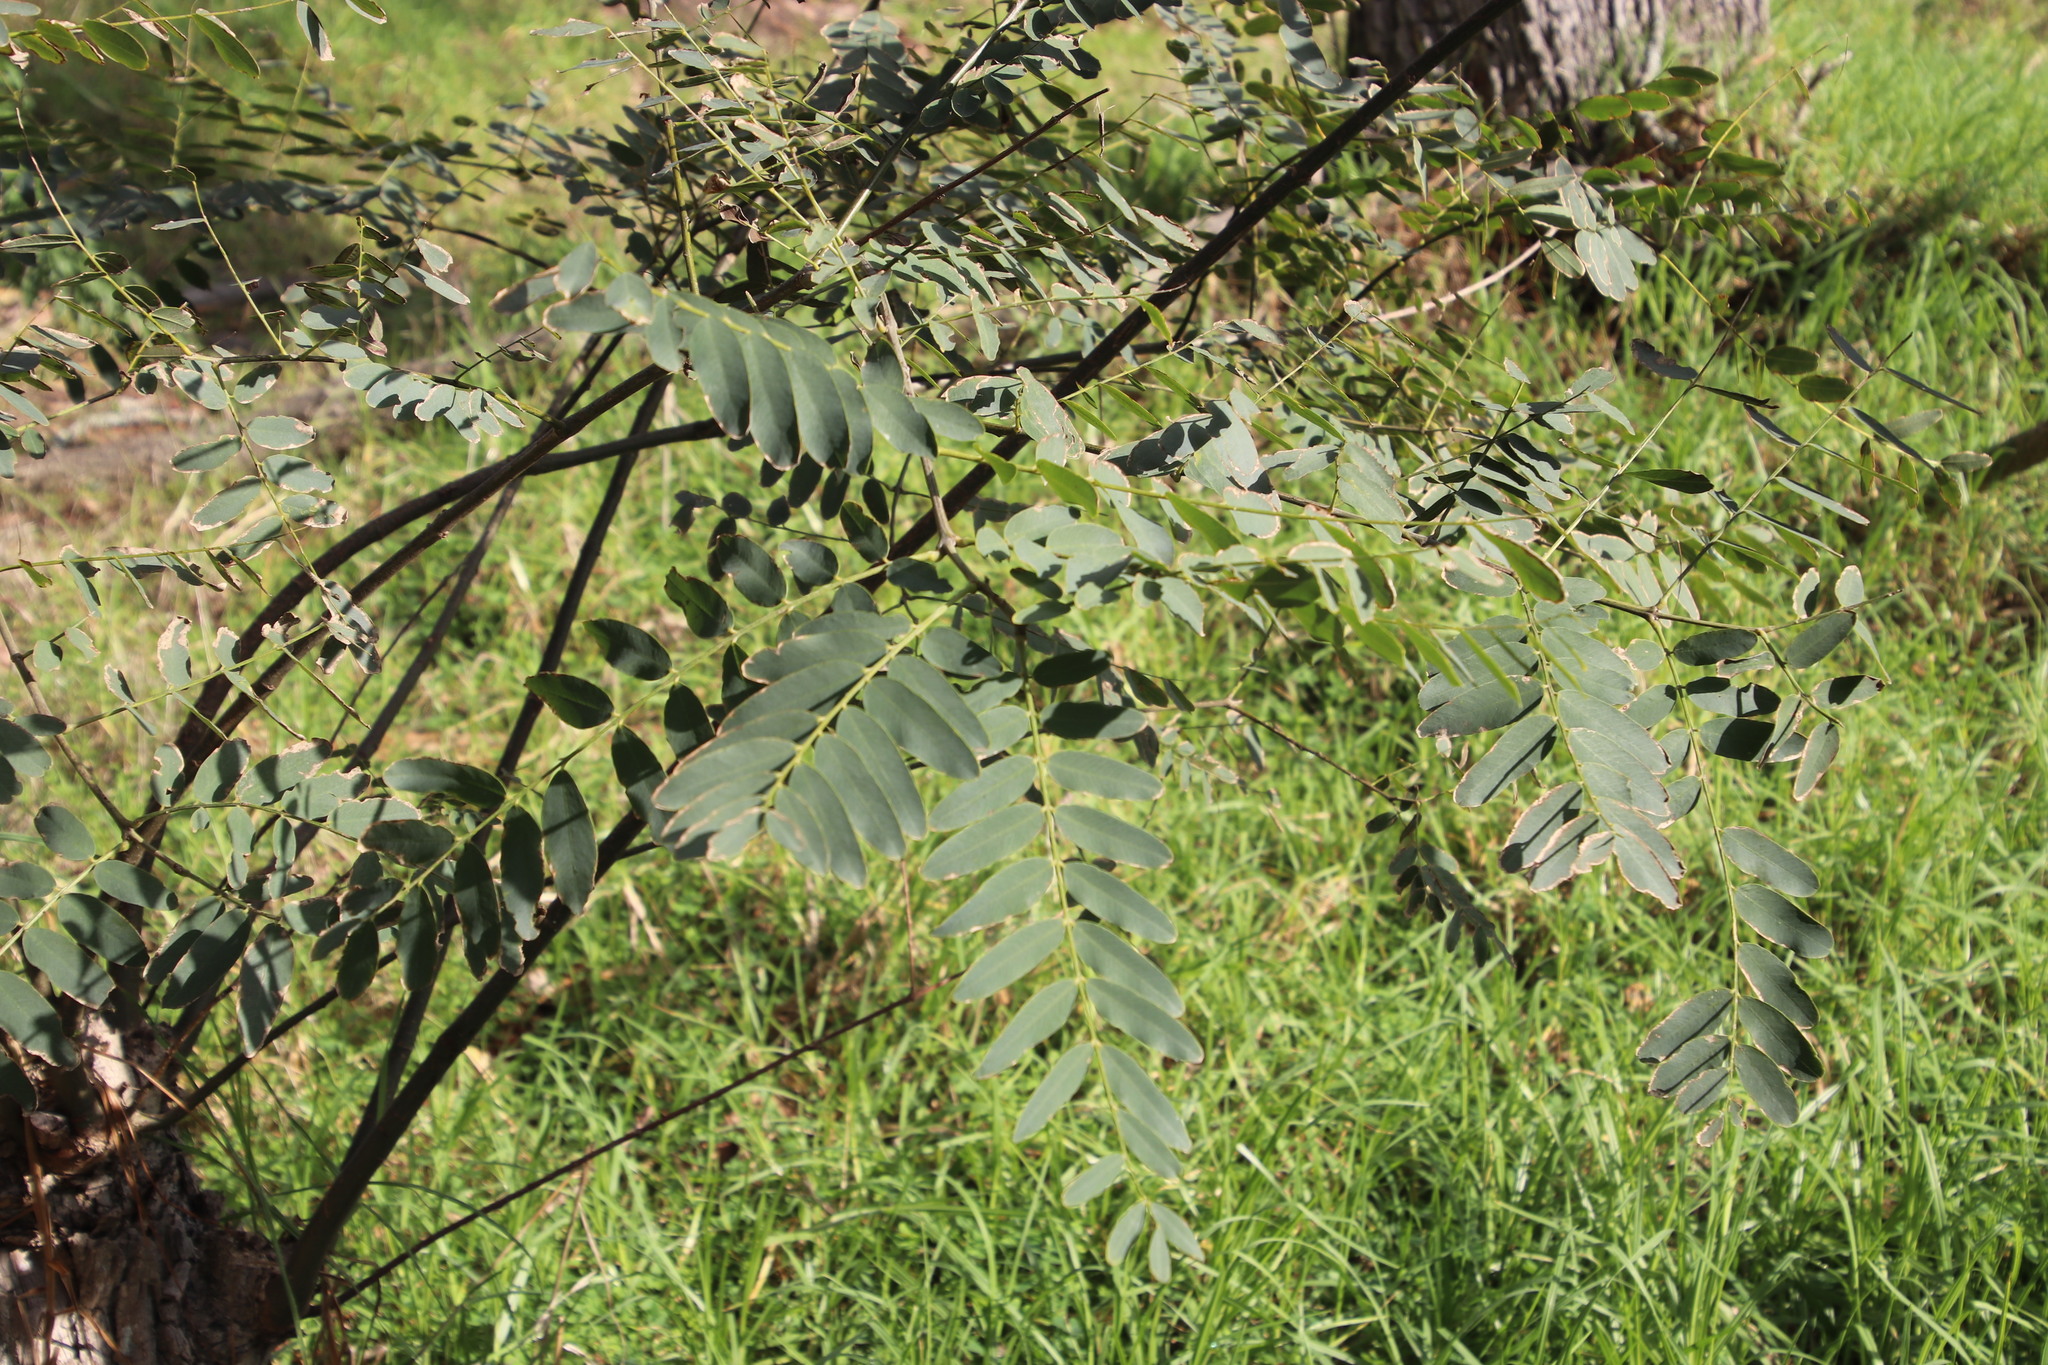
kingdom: Plantae
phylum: Tracheophyta
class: Magnoliopsida
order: Fabales
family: Fabaceae
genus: Robinia
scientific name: Robinia pseudoacacia
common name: Black locust
